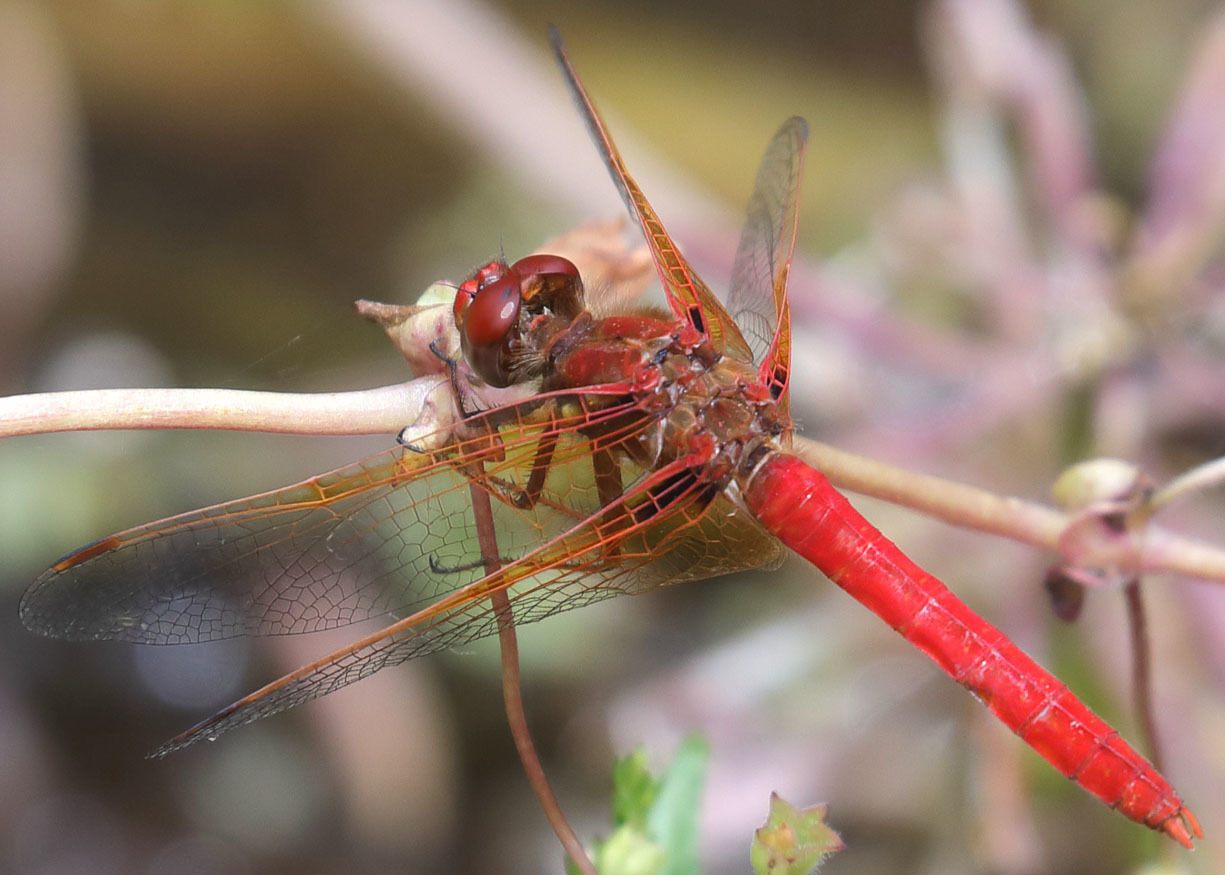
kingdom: Animalia
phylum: Arthropoda
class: Insecta
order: Odonata
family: Libellulidae
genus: Sympetrum
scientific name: Sympetrum illotum
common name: Cardinal meadowhawk
